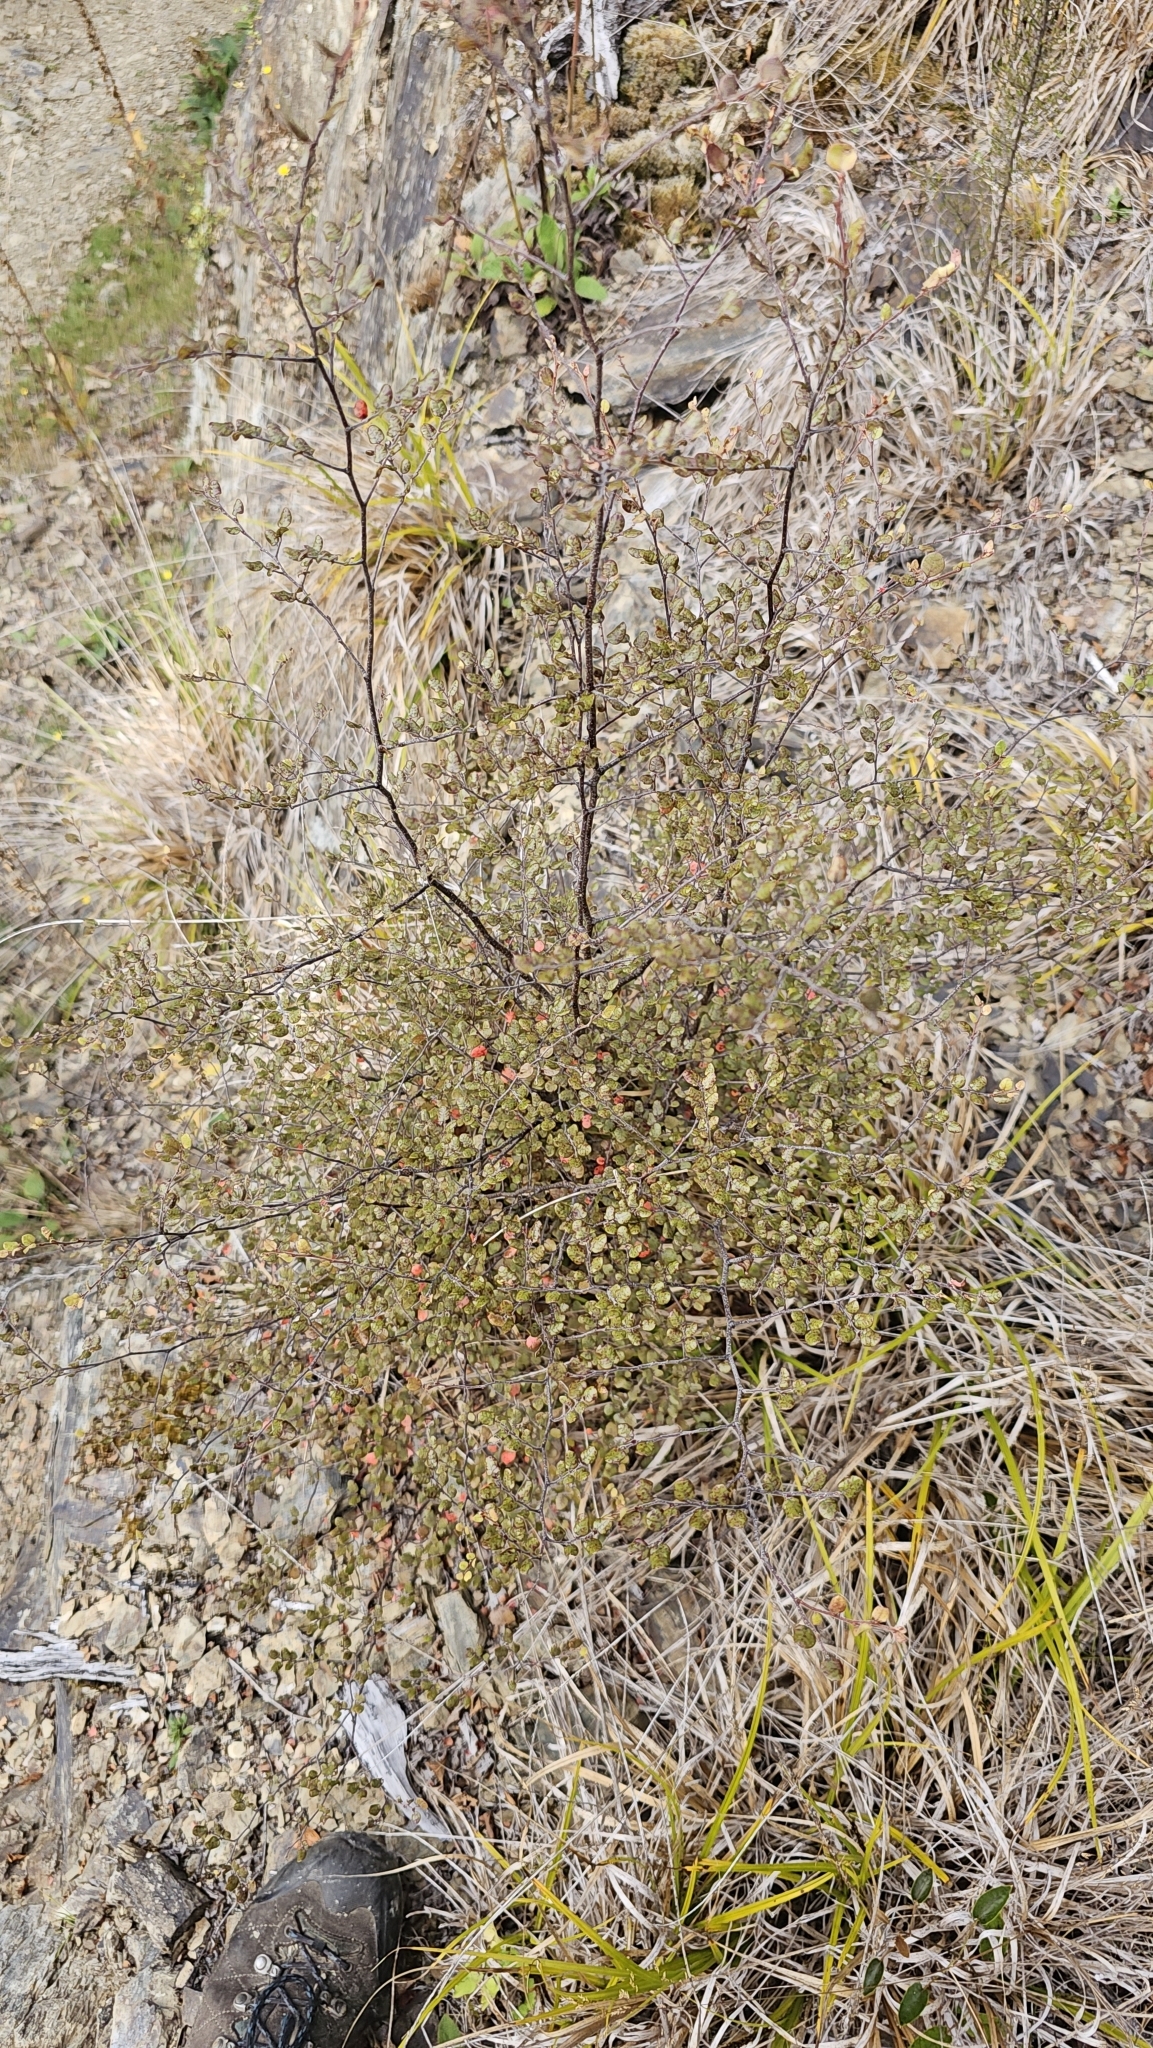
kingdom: Plantae
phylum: Tracheophyta
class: Magnoliopsida
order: Fagales
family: Nothofagaceae
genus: Nothofagus
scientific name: Nothofagus cliffortioides
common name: Mountain beech
